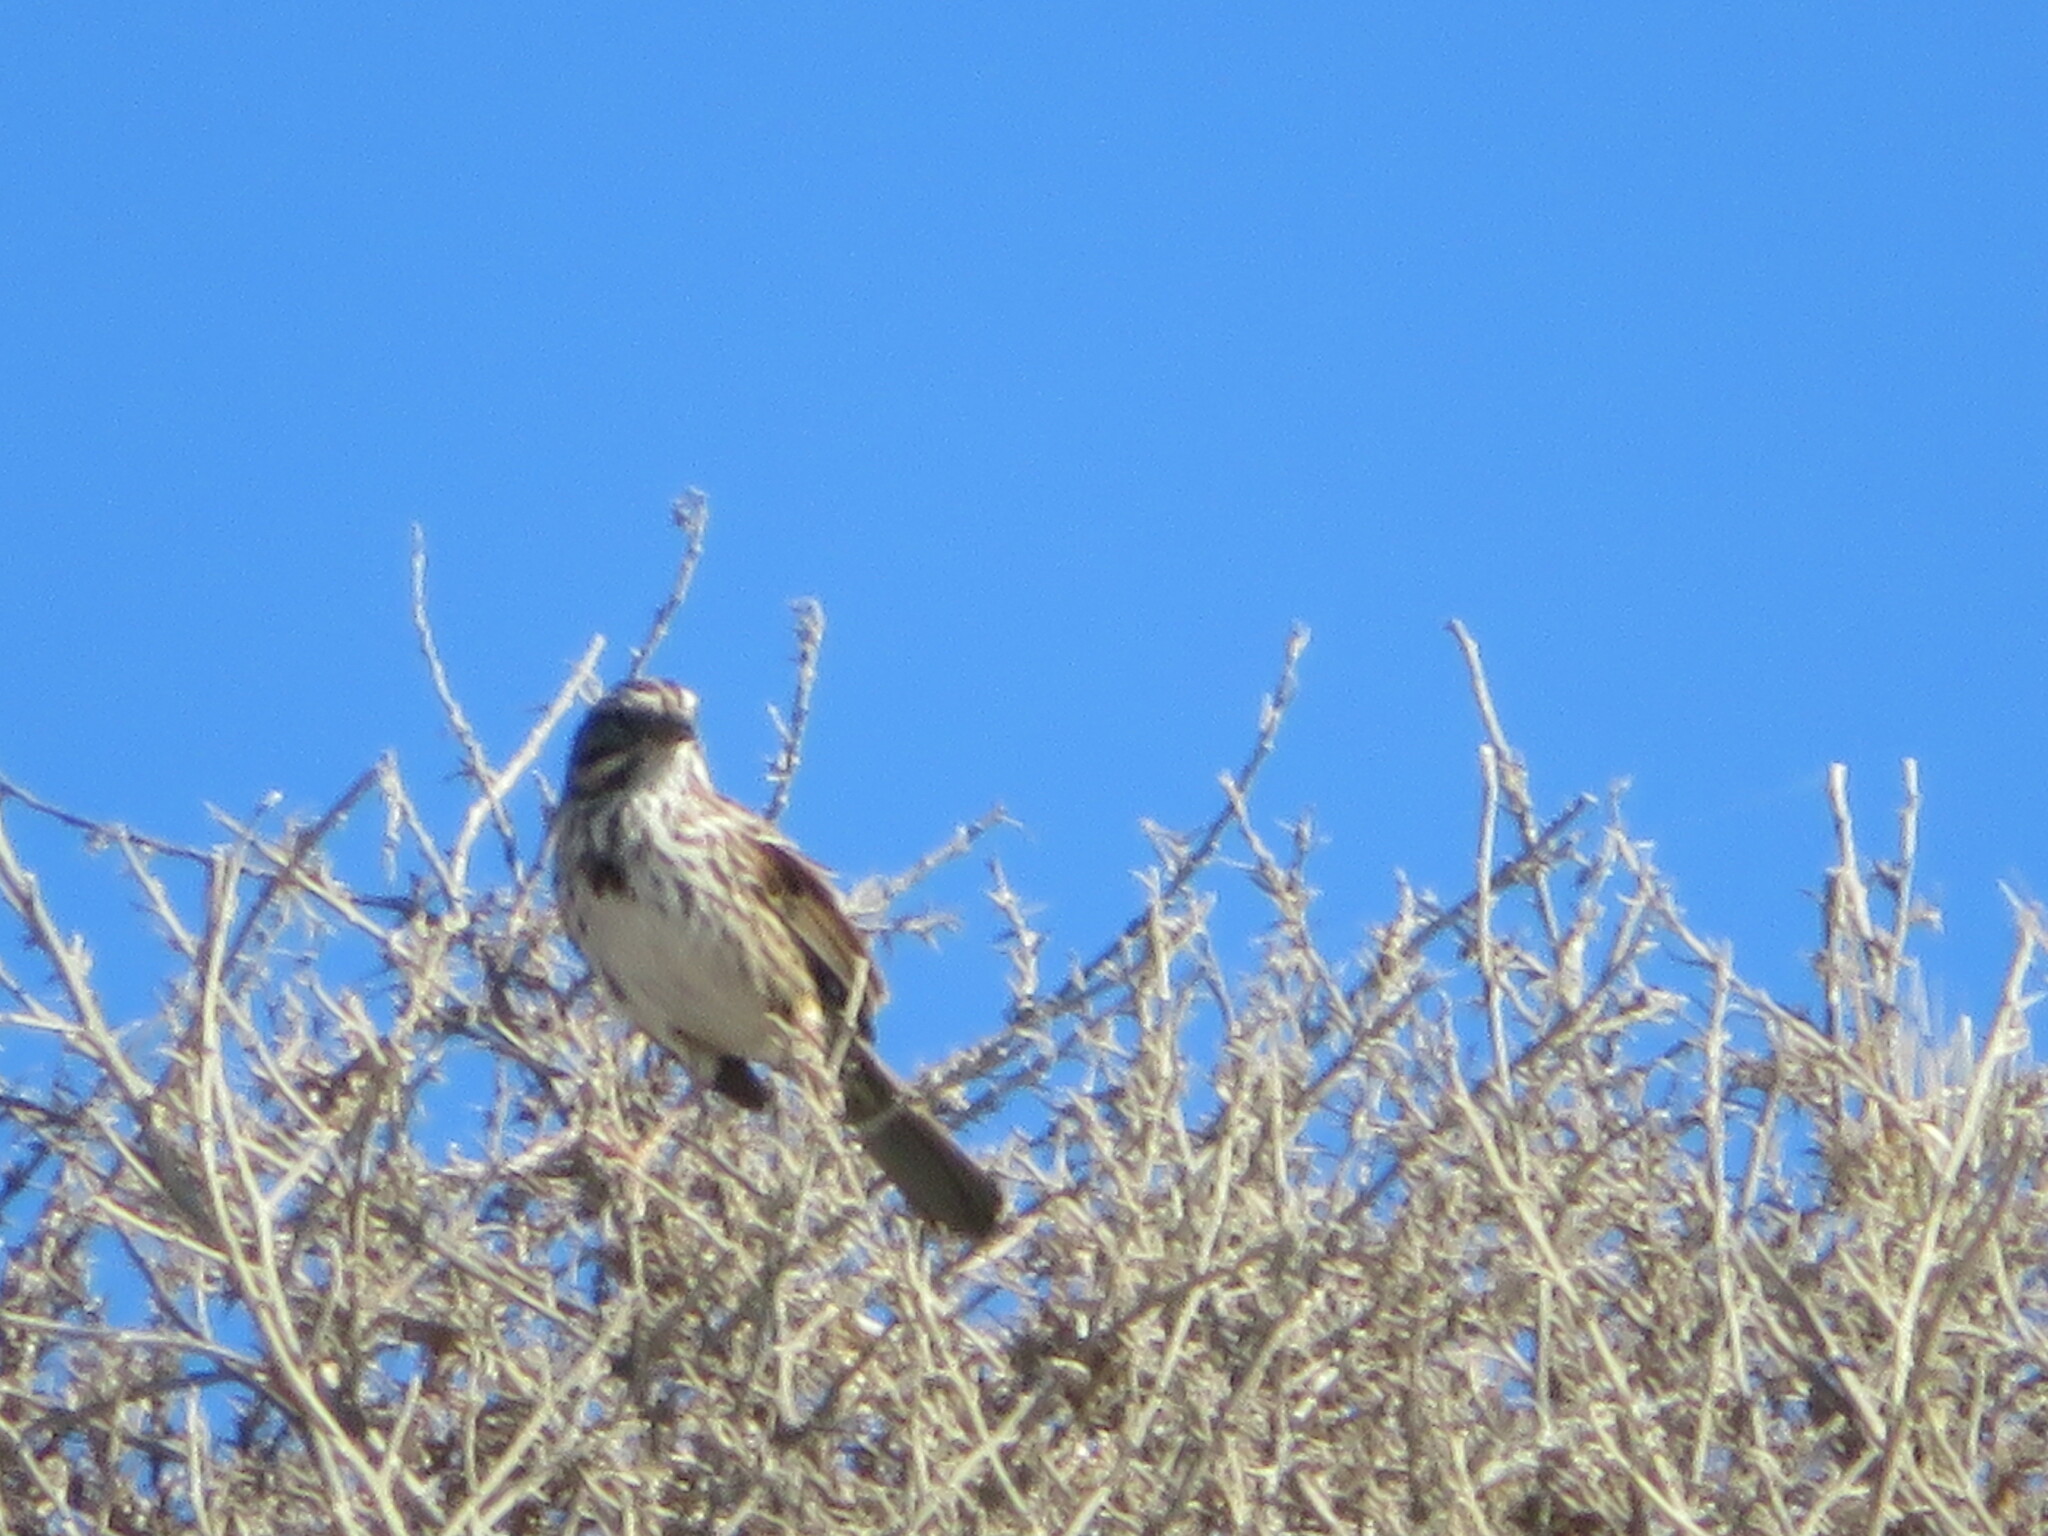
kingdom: Animalia
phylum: Chordata
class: Aves
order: Passeriformes
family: Passerellidae
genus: Melospiza
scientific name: Melospiza melodia
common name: Song sparrow
